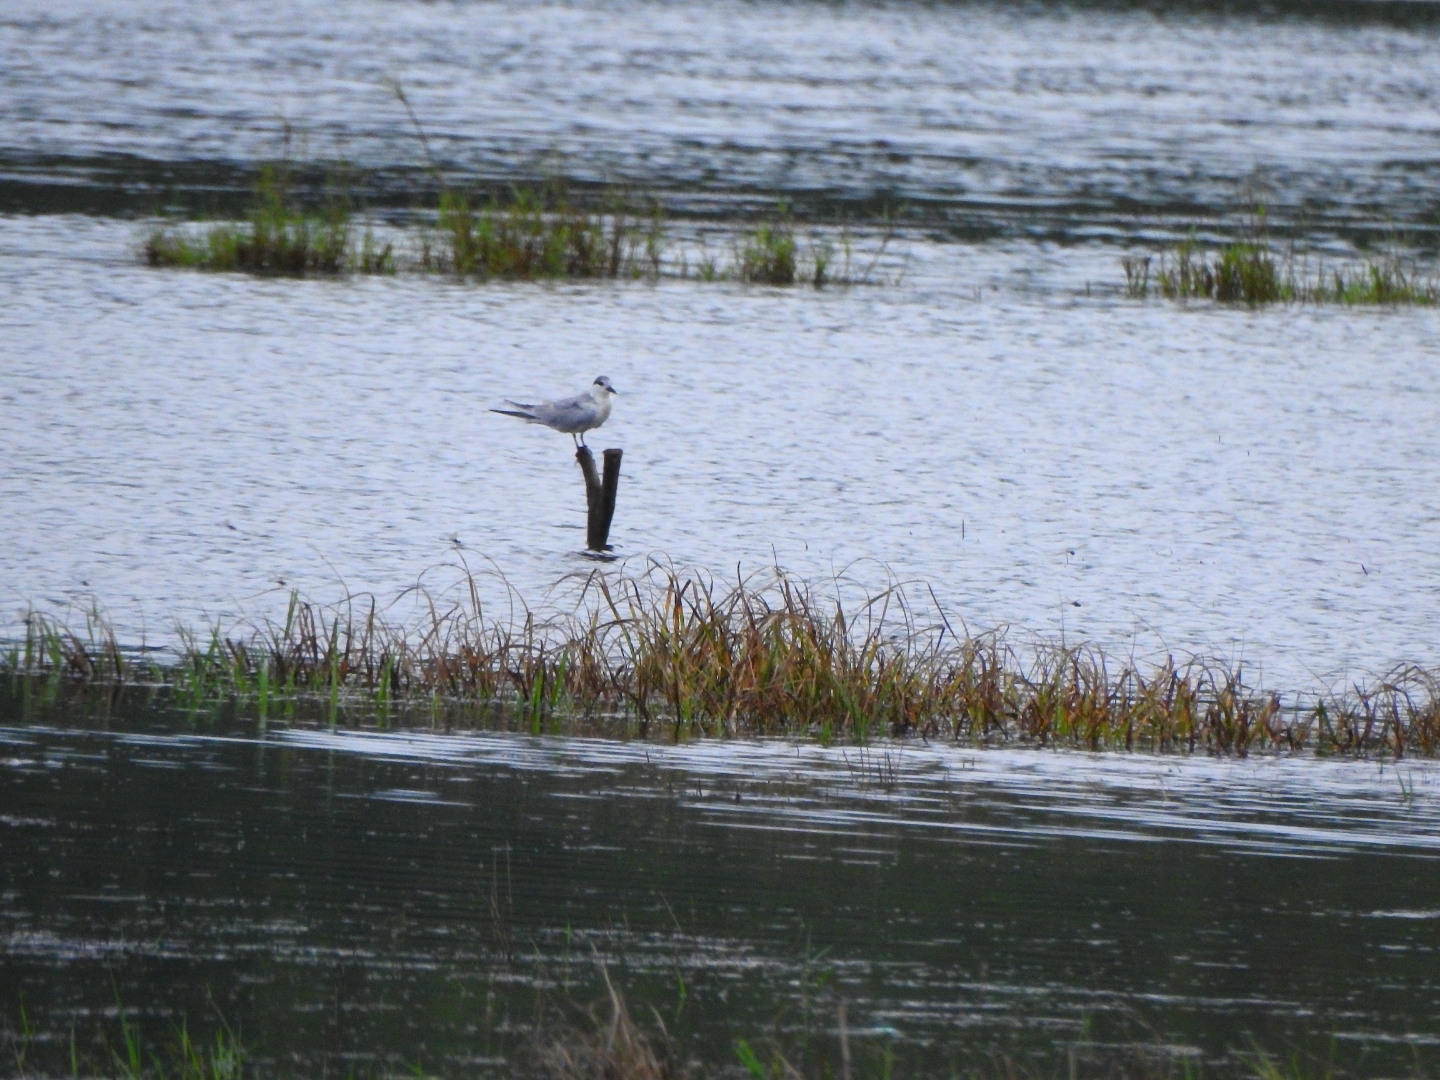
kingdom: Animalia
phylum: Chordata
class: Aves
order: Charadriiformes
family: Laridae
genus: Chlidonias
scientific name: Chlidonias hybrida
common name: Whiskered tern
